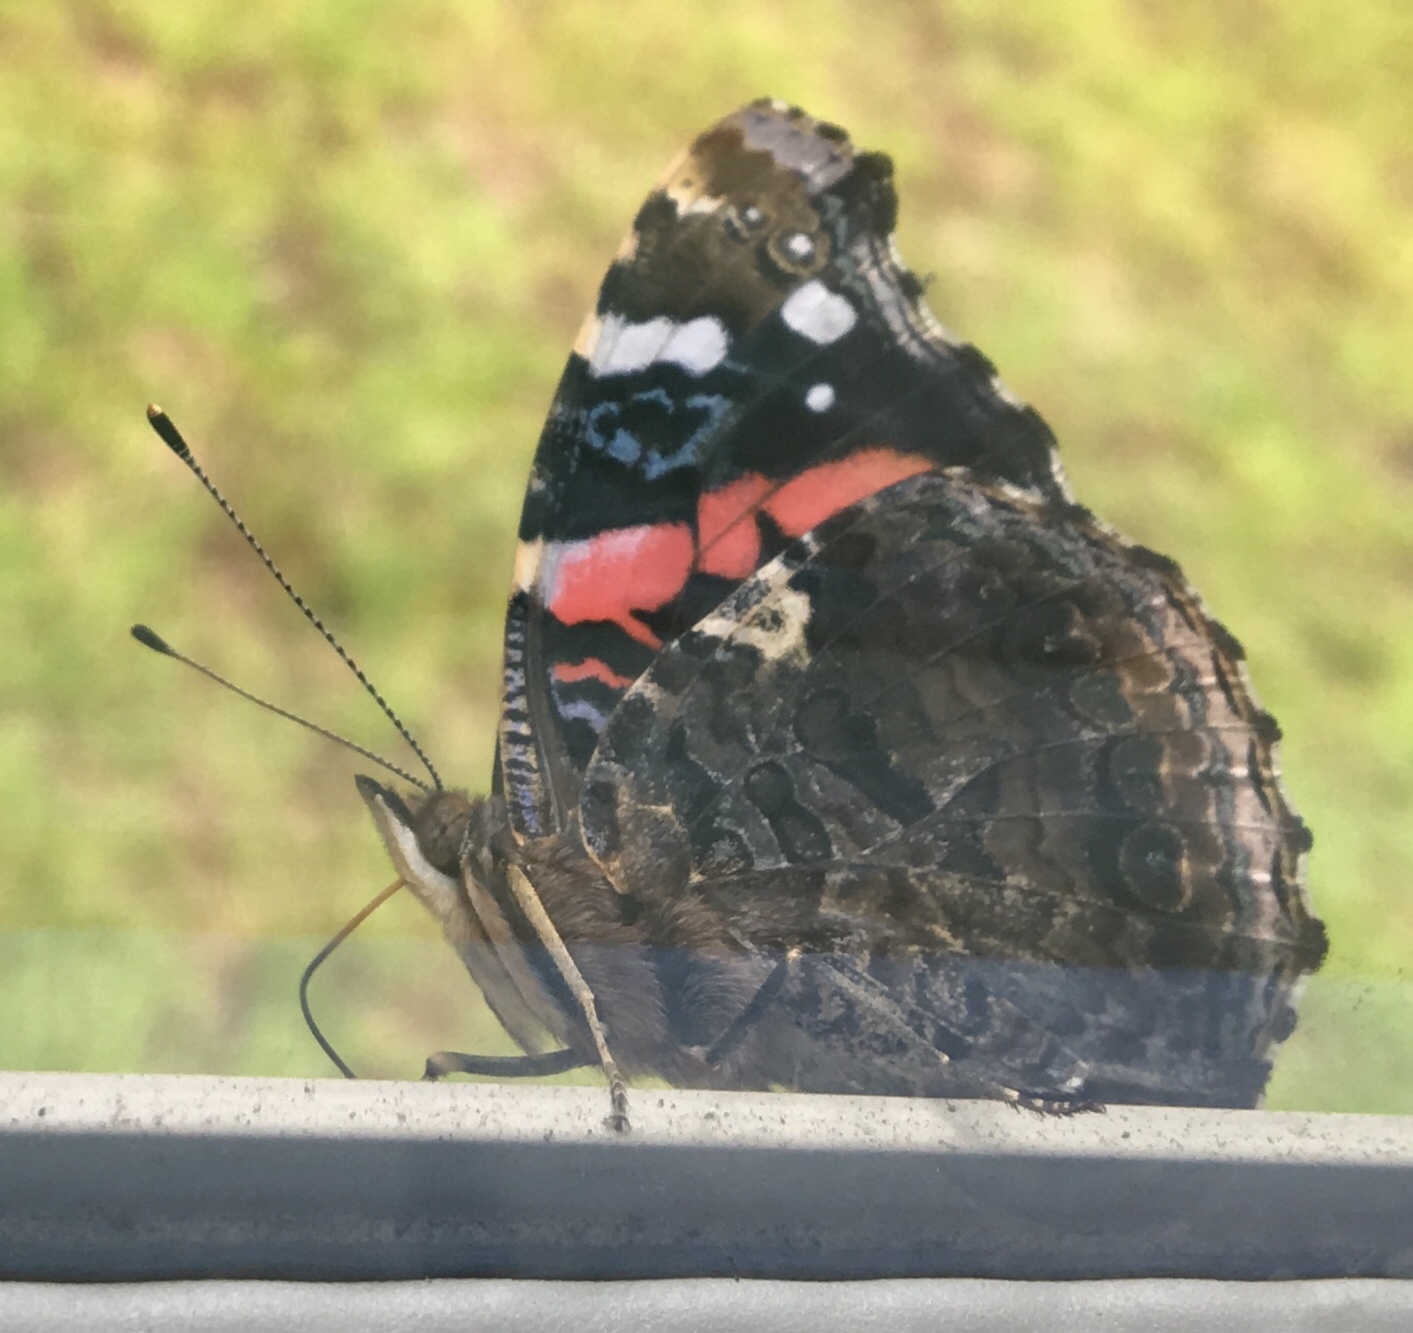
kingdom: Animalia
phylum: Arthropoda
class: Insecta
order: Lepidoptera
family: Nymphalidae
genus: Vanessa
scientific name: Vanessa atalanta
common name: Red admiral
